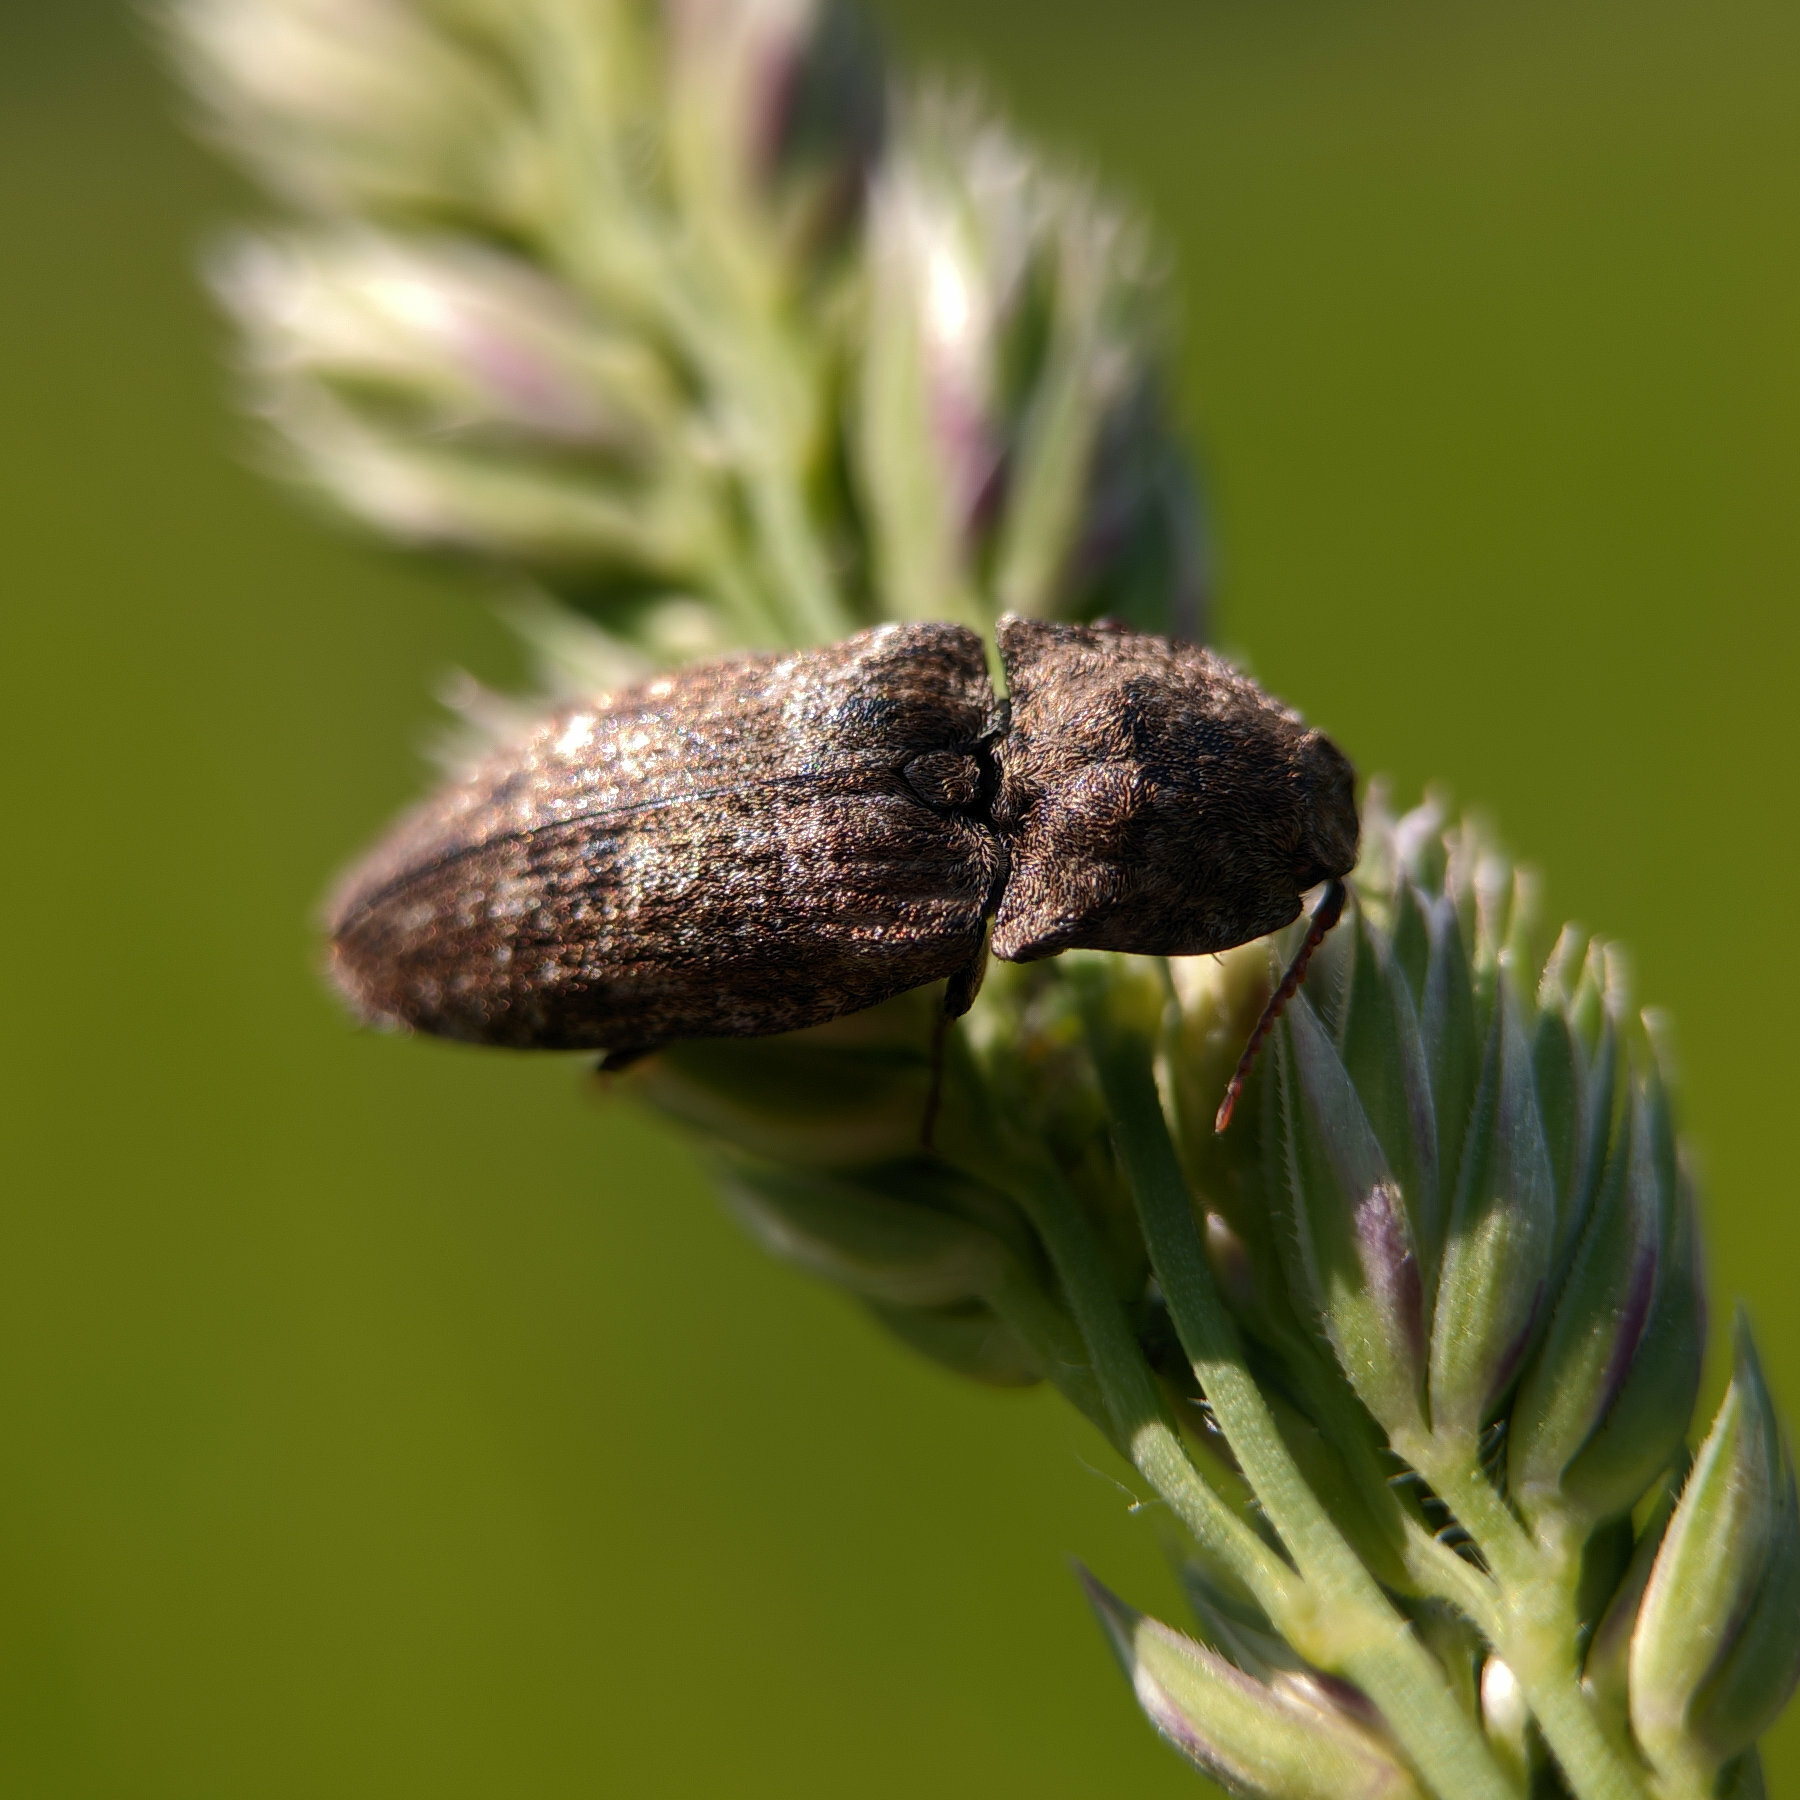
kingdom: Animalia
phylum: Arthropoda
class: Insecta
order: Coleoptera
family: Elateridae
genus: Agrypnus
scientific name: Agrypnus murinus
